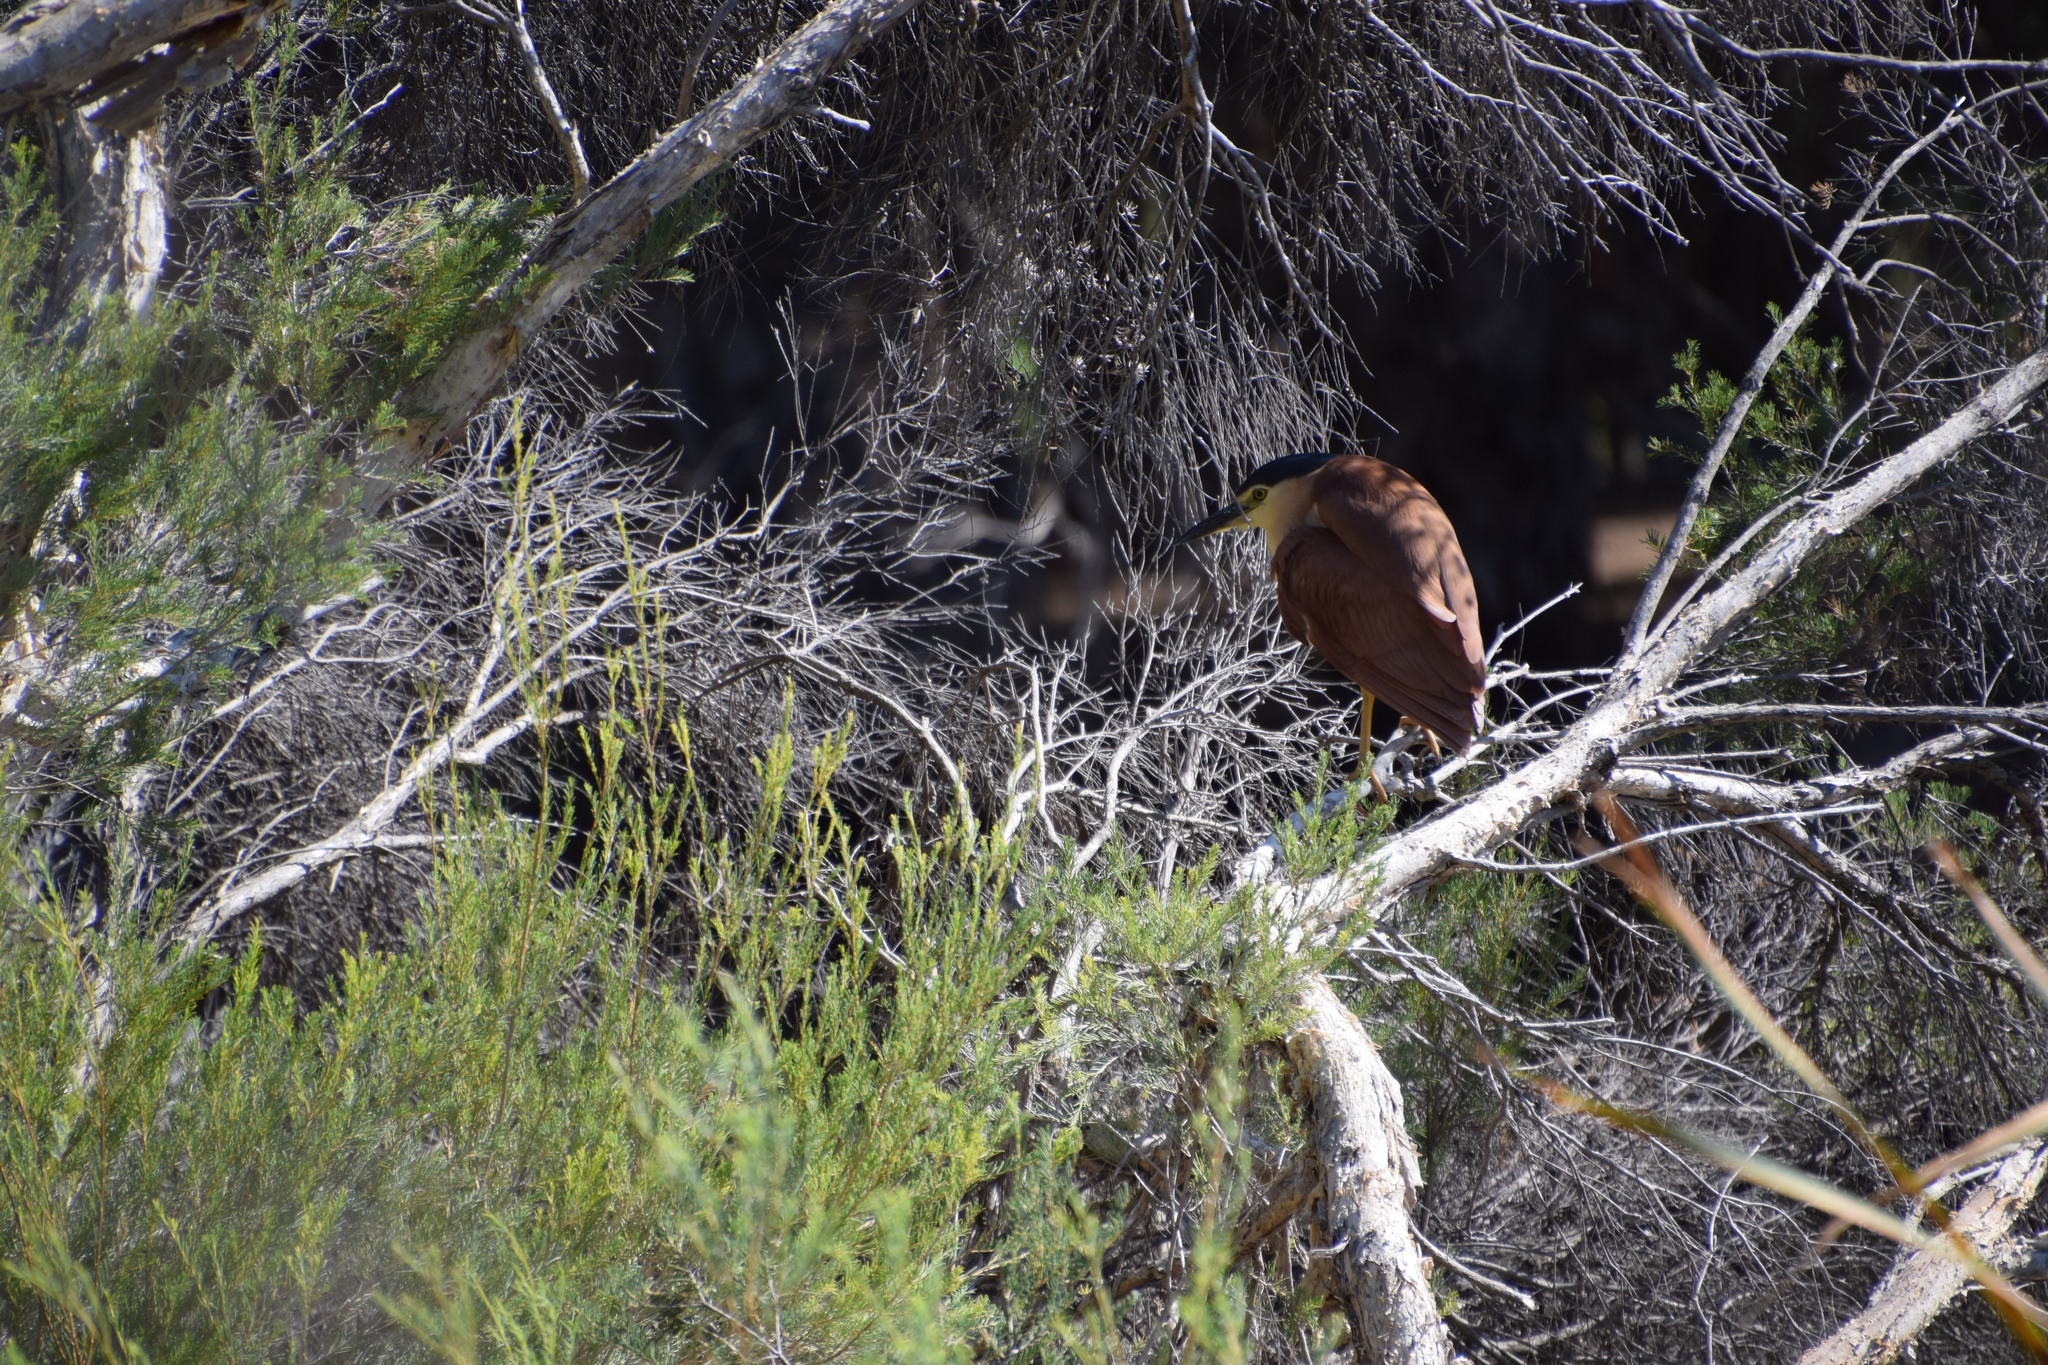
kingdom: Animalia
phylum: Chordata
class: Aves
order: Pelecaniformes
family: Ardeidae
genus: Nycticorax
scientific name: Nycticorax caledonicus
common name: Rufous night-heron
